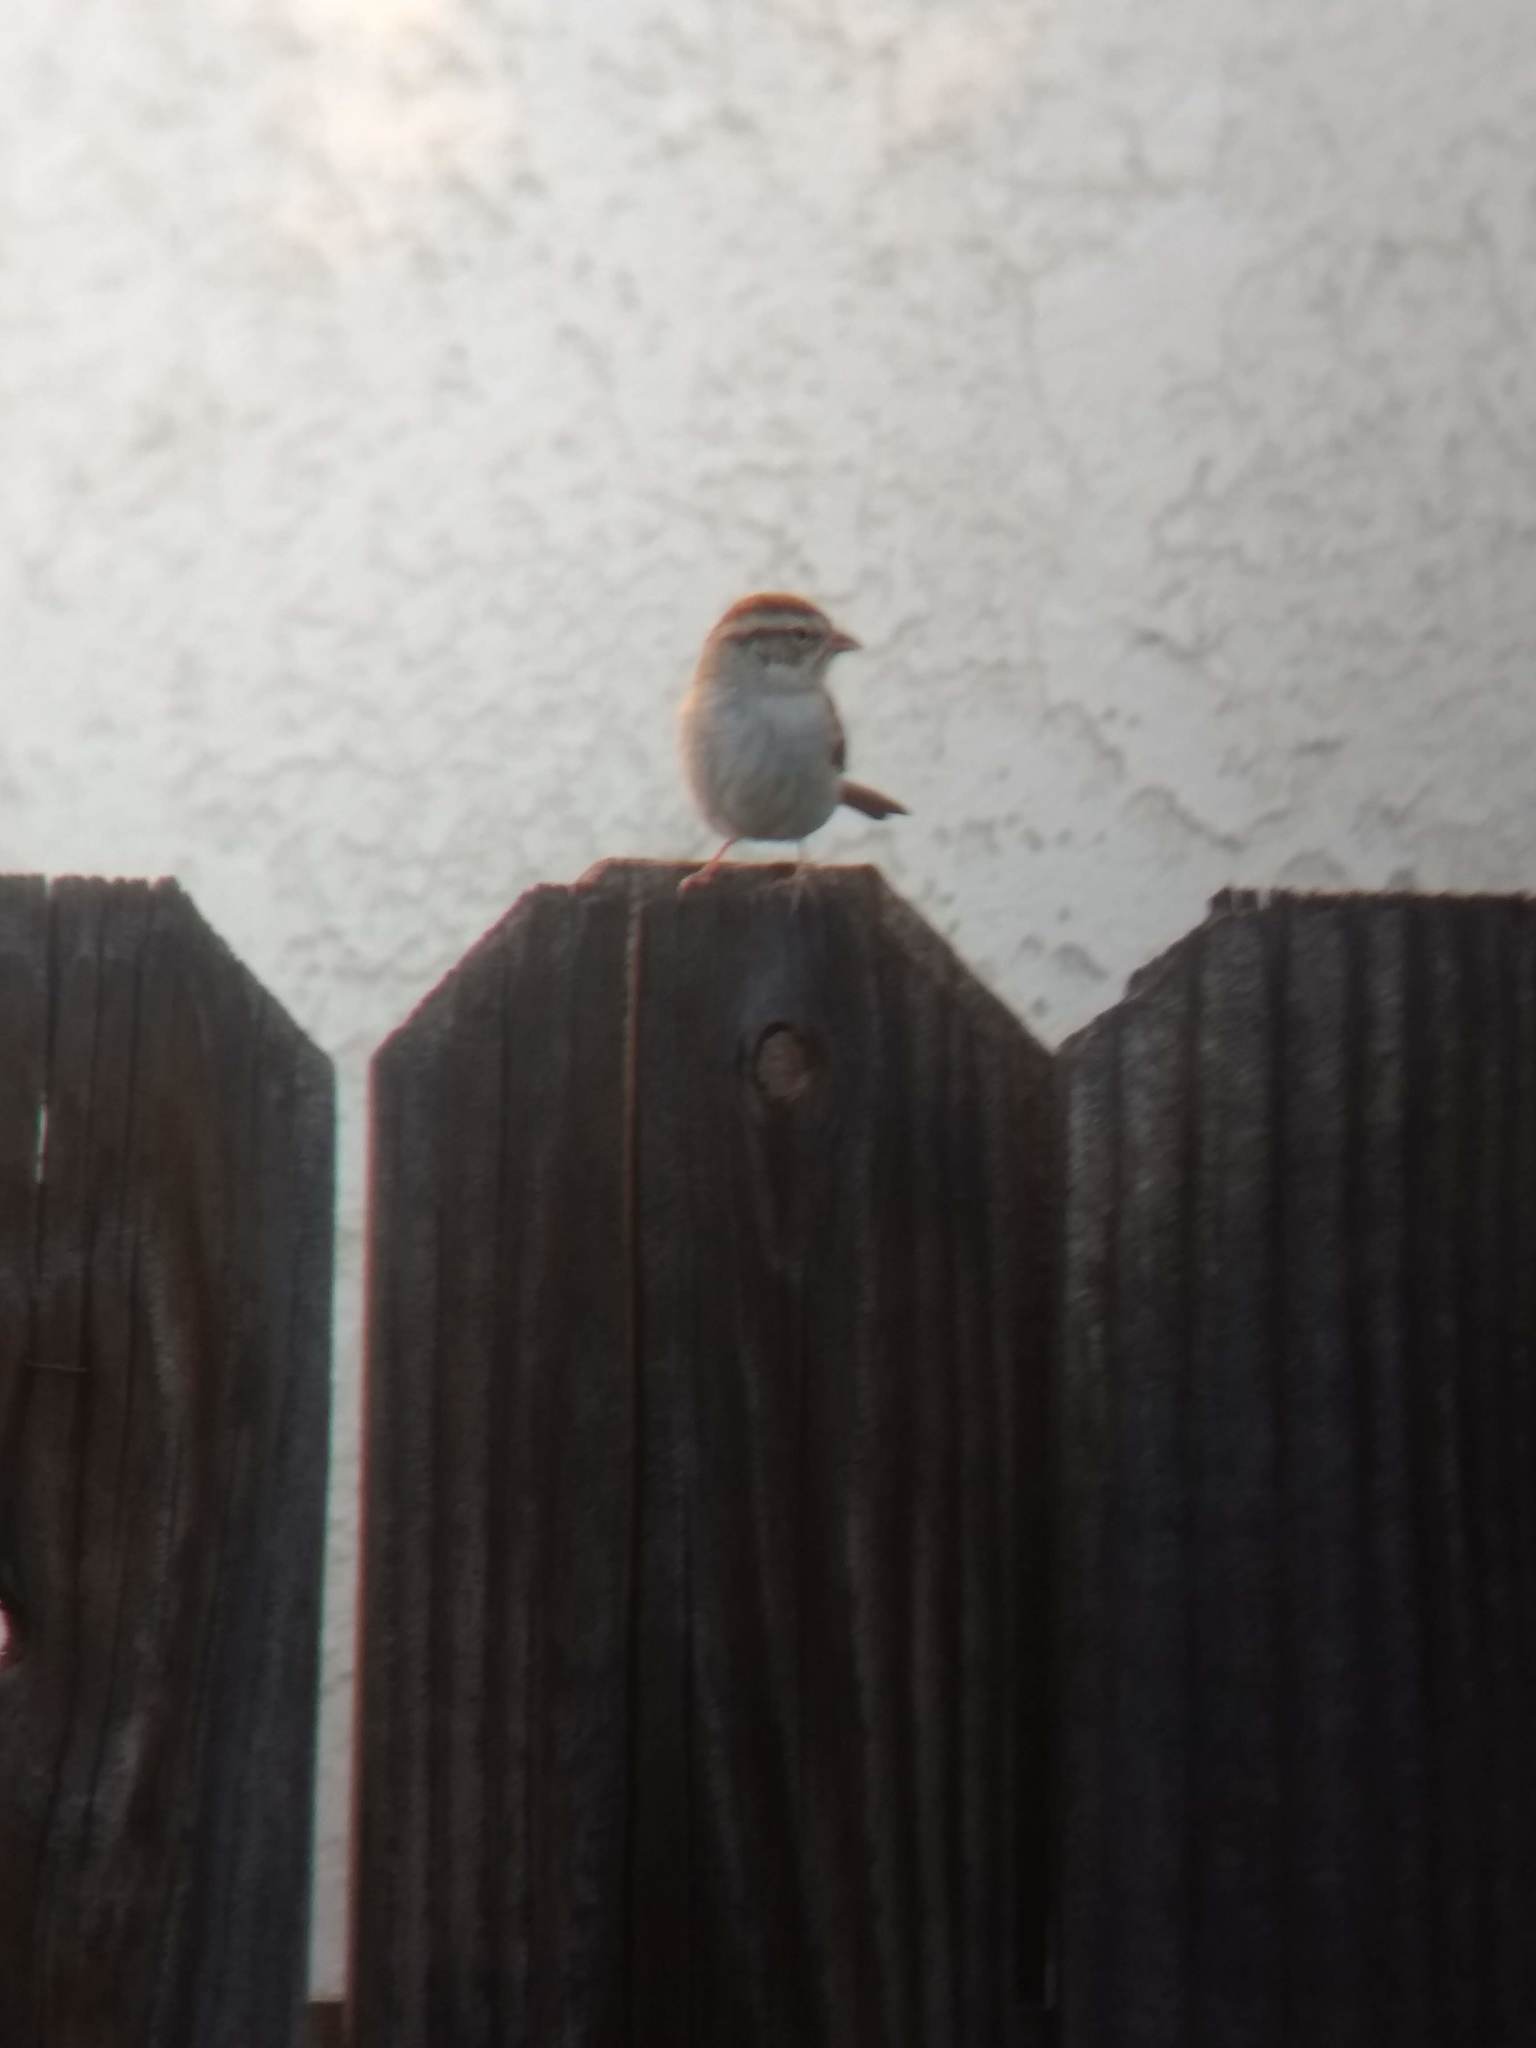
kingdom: Animalia
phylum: Chordata
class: Aves
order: Passeriformes
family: Passerellidae
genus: Spizella
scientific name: Spizella passerina
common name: Chipping sparrow
